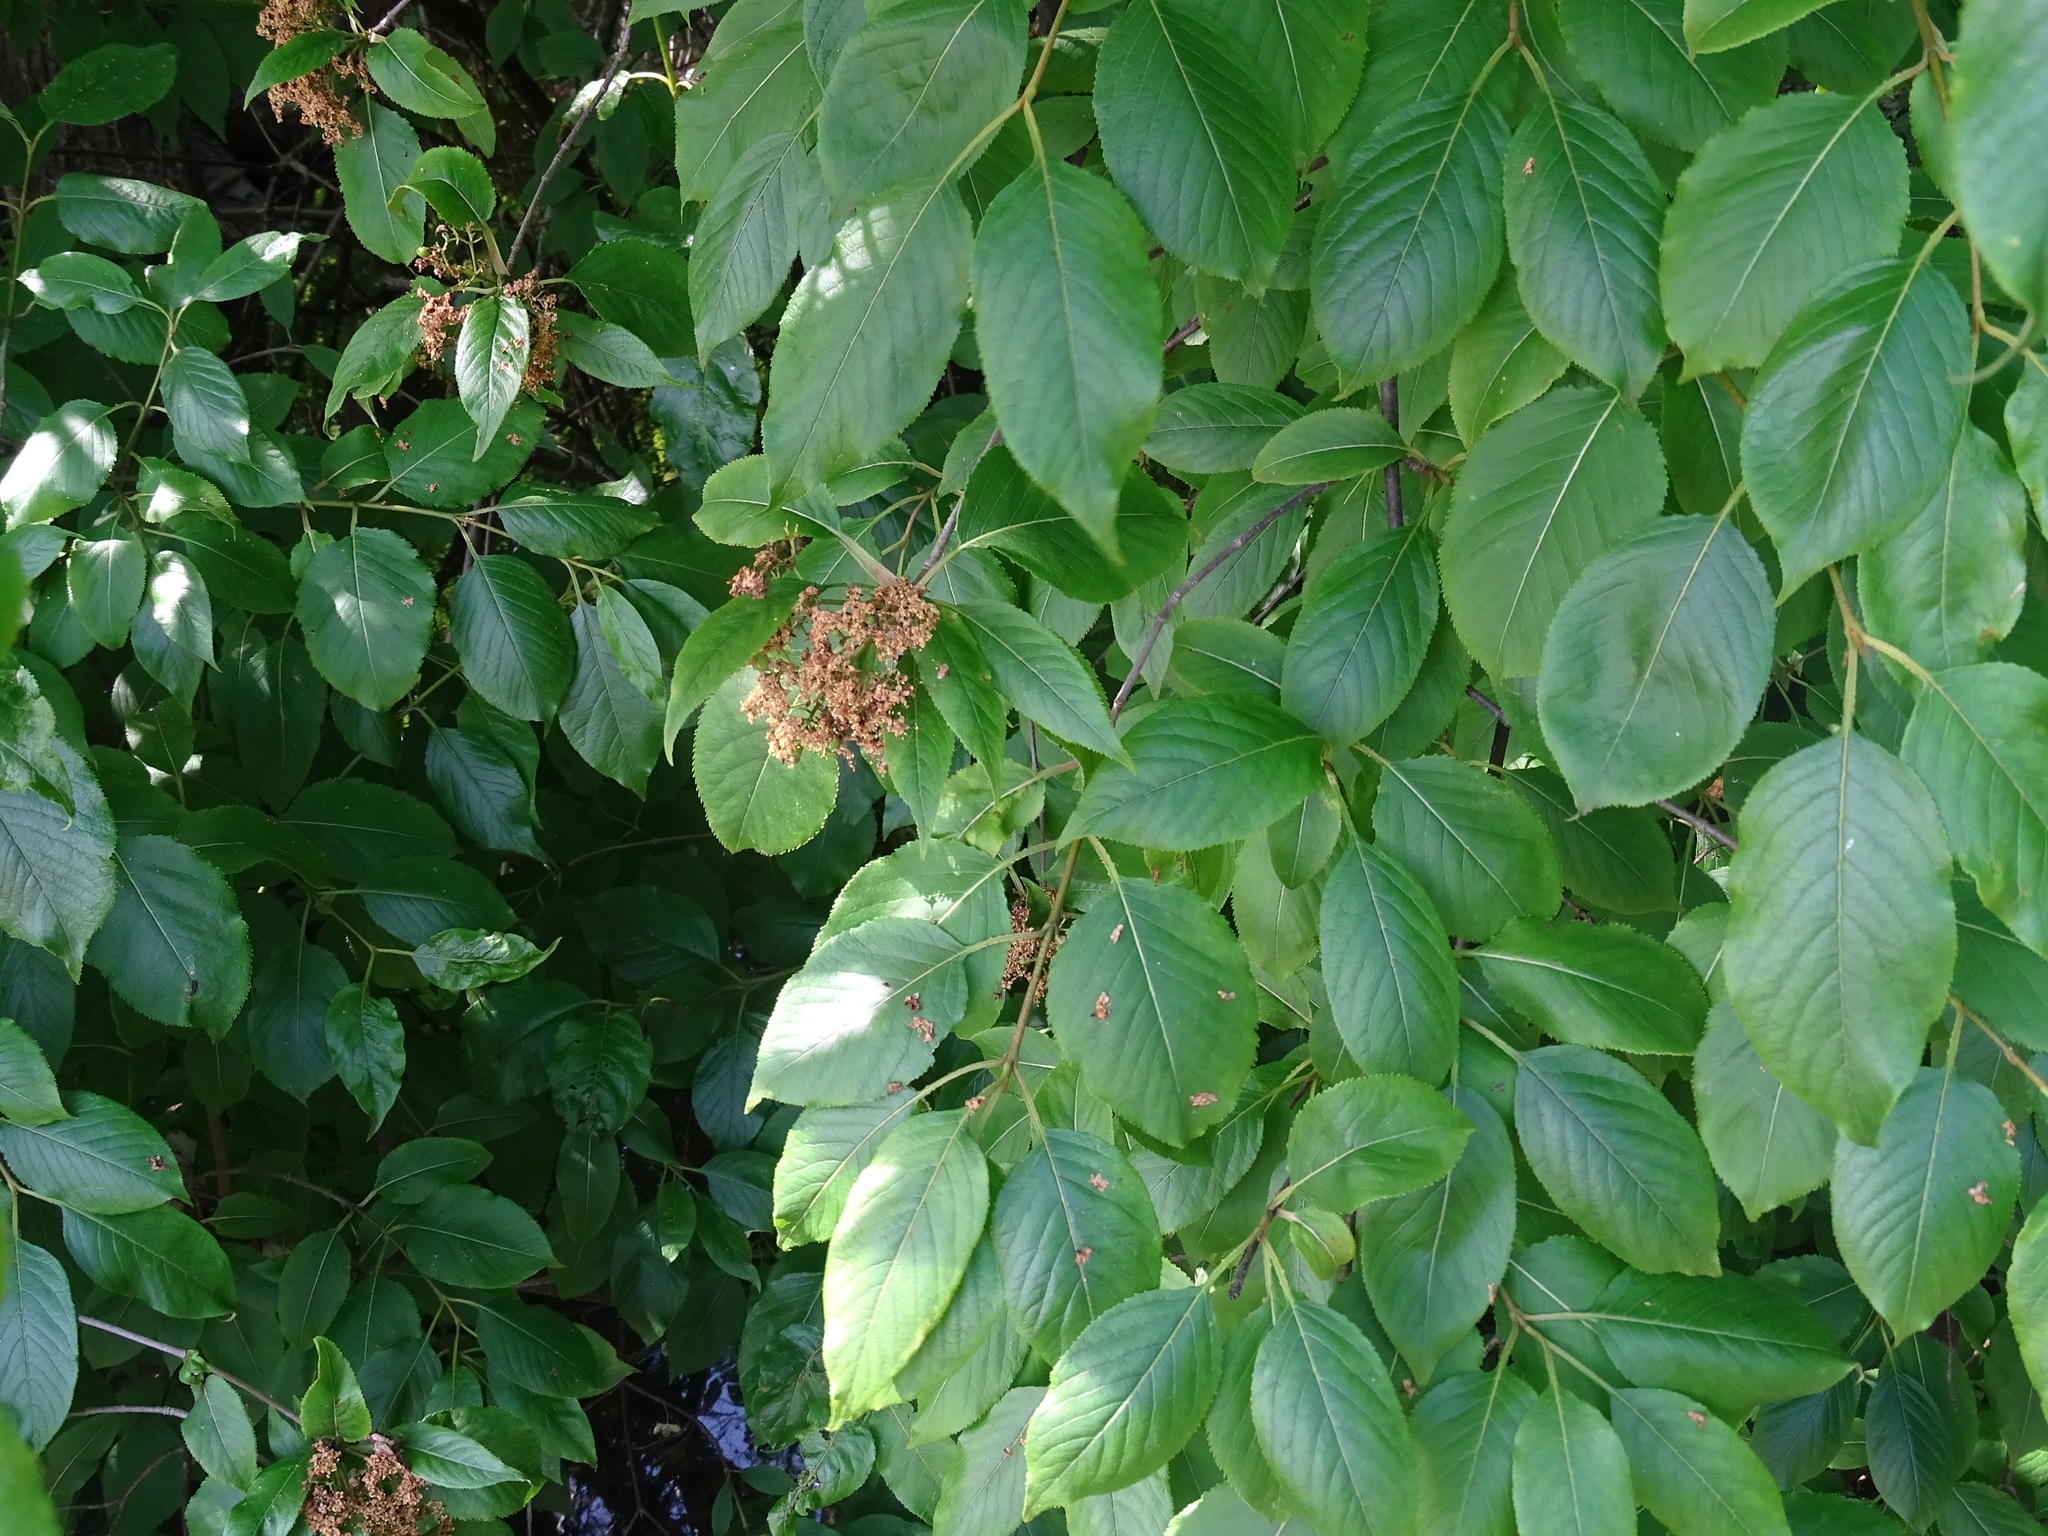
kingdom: Plantae
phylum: Tracheophyta
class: Magnoliopsida
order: Dipsacales
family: Viburnaceae
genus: Viburnum
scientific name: Viburnum lentago
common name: Black haw
